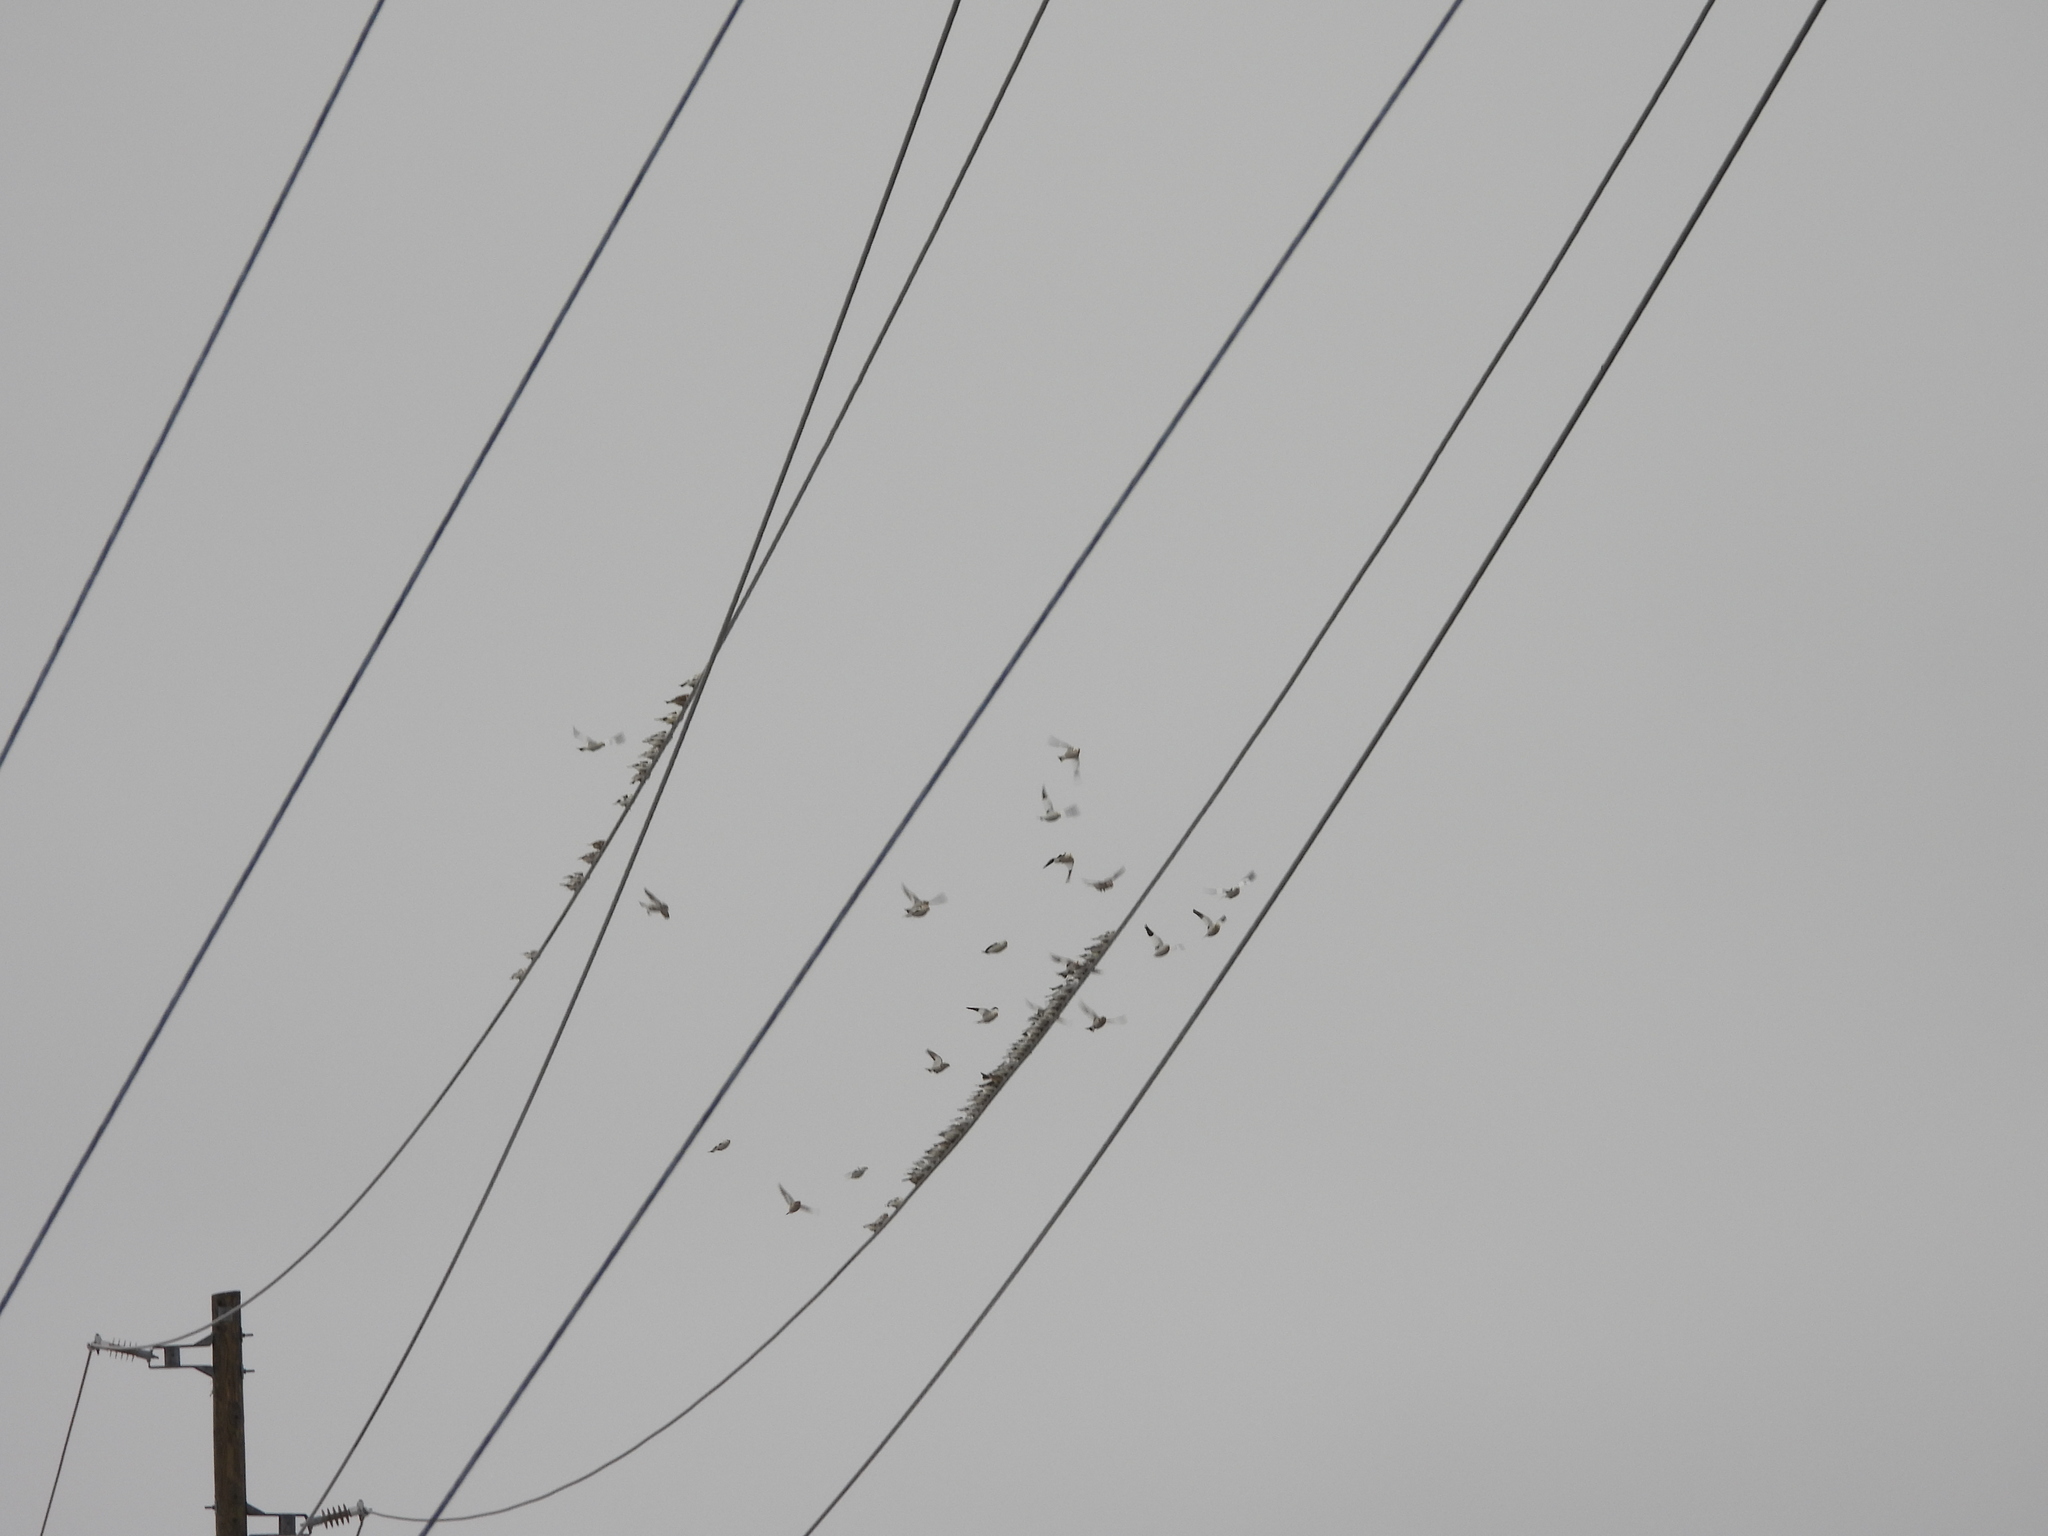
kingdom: Animalia
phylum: Chordata
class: Aves
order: Passeriformes
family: Calcariidae
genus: Plectrophenax
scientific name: Plectrophenax nivalis
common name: Snow bunting
